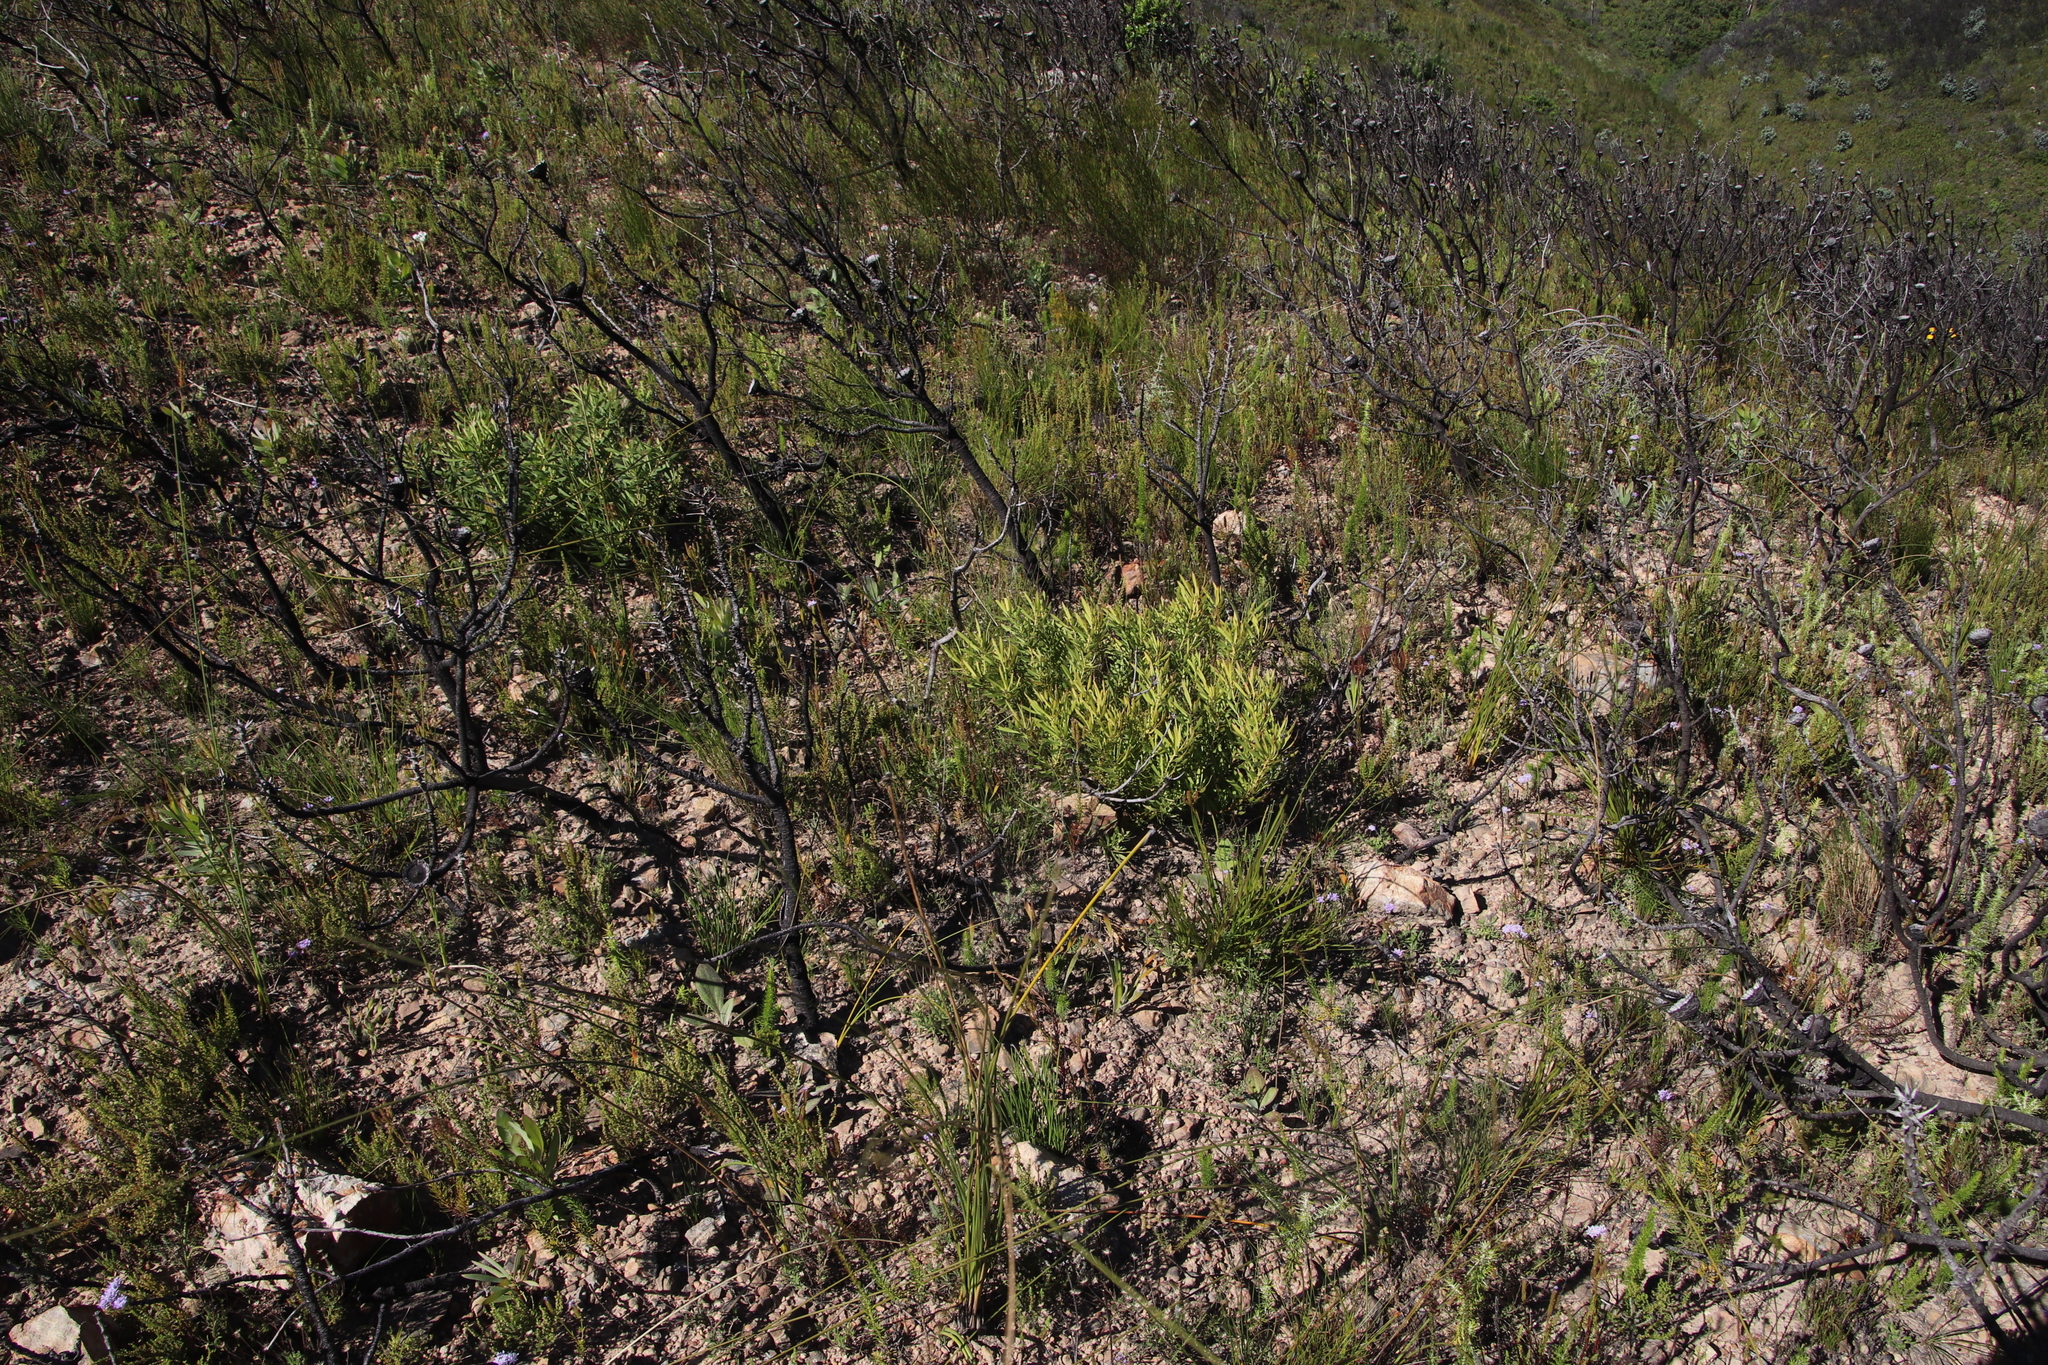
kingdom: Plantae
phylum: Tracheophyta
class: Magnoliopsida
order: Proteales
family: Proteaceae
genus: Leucadendron
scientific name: Leucadendron salignum
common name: Common sunshine conebush
